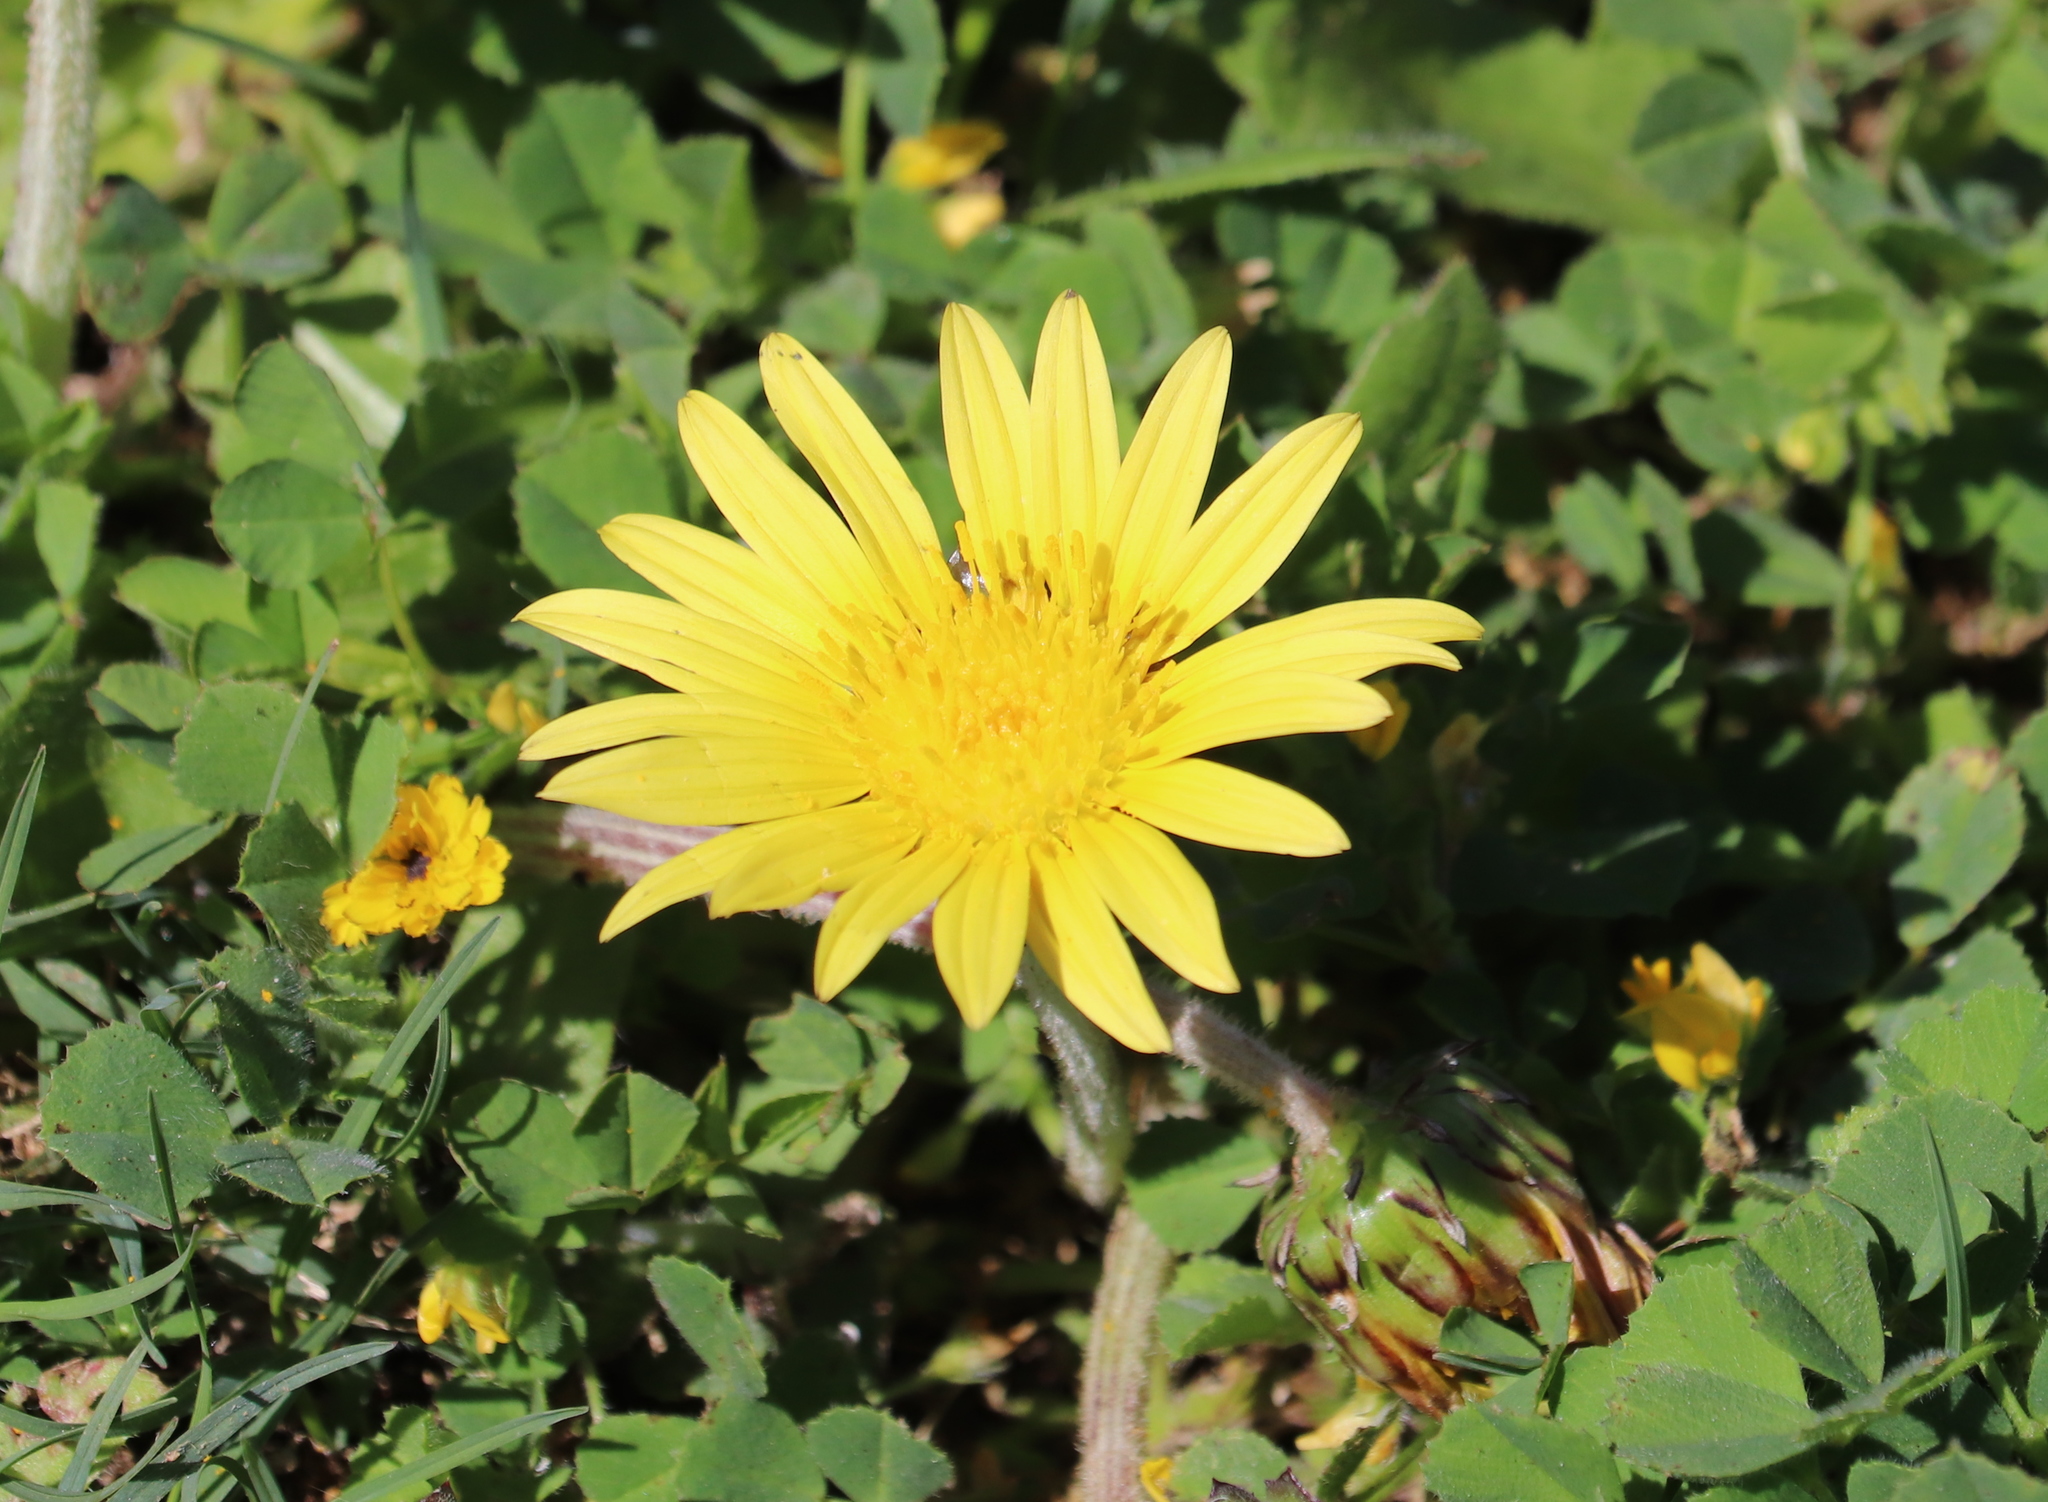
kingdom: Plantae
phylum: Tracheophyta
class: Magnoliopsida
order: Asterales
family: Asteraceae
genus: Arctotheca
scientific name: Arctotheca prostrata
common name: Capeweed
